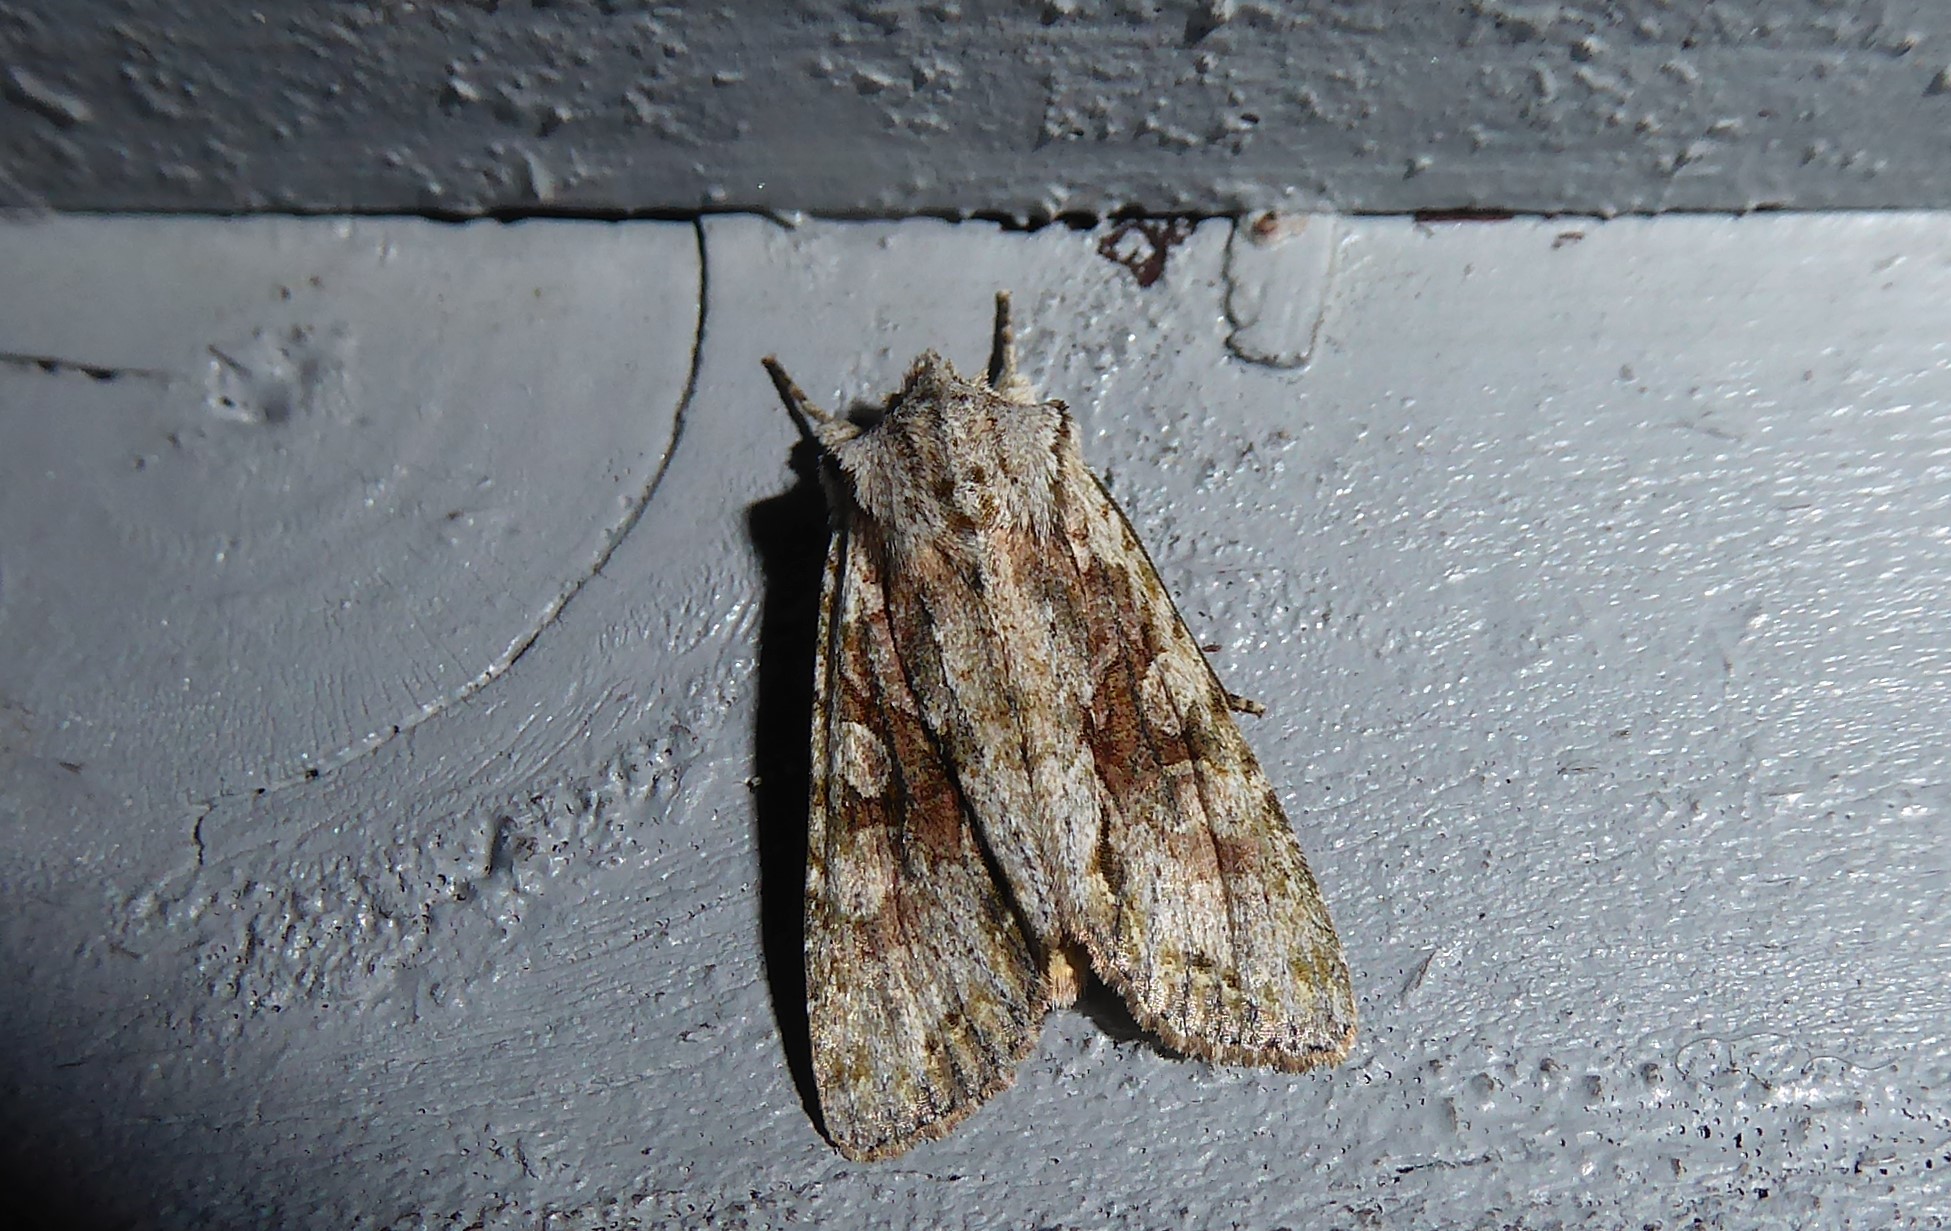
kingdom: Animalia
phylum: Arthropoda
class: Insecta
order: Lepidoptera
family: Noctuidae
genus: Ichneutica
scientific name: Ichneutica mutans
